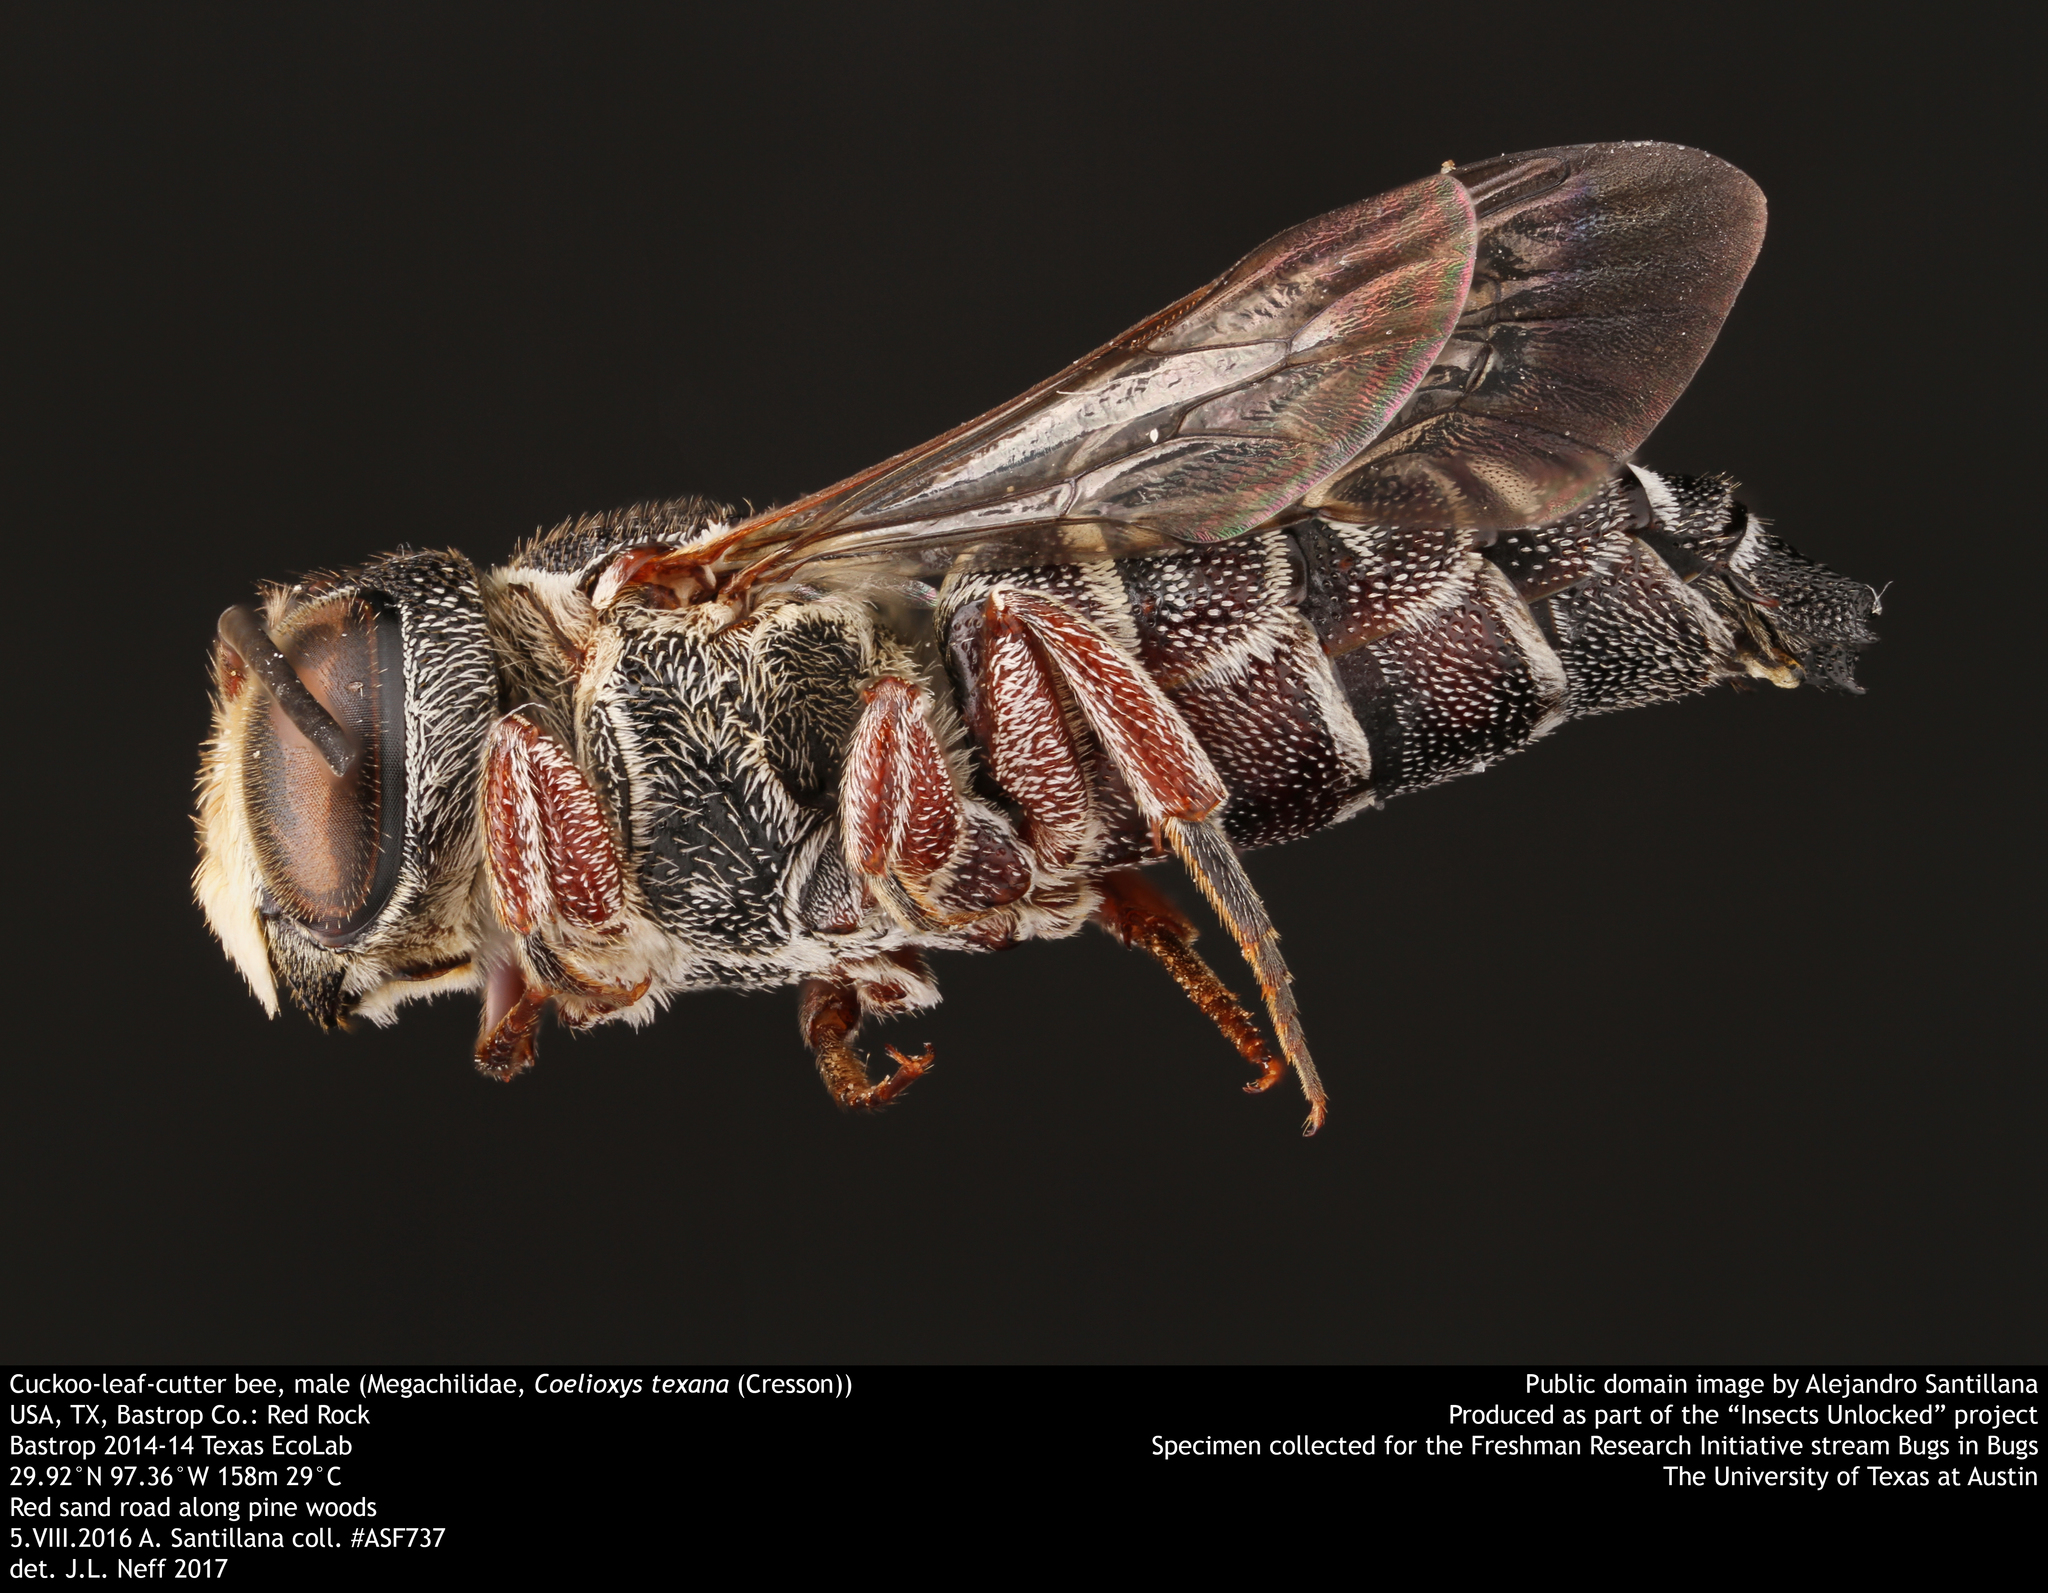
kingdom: Animalia
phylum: Arthropoda
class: Insecta
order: Hymenoptera
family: Megachilidae
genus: Coelioxys
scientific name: Coelioxys texana
